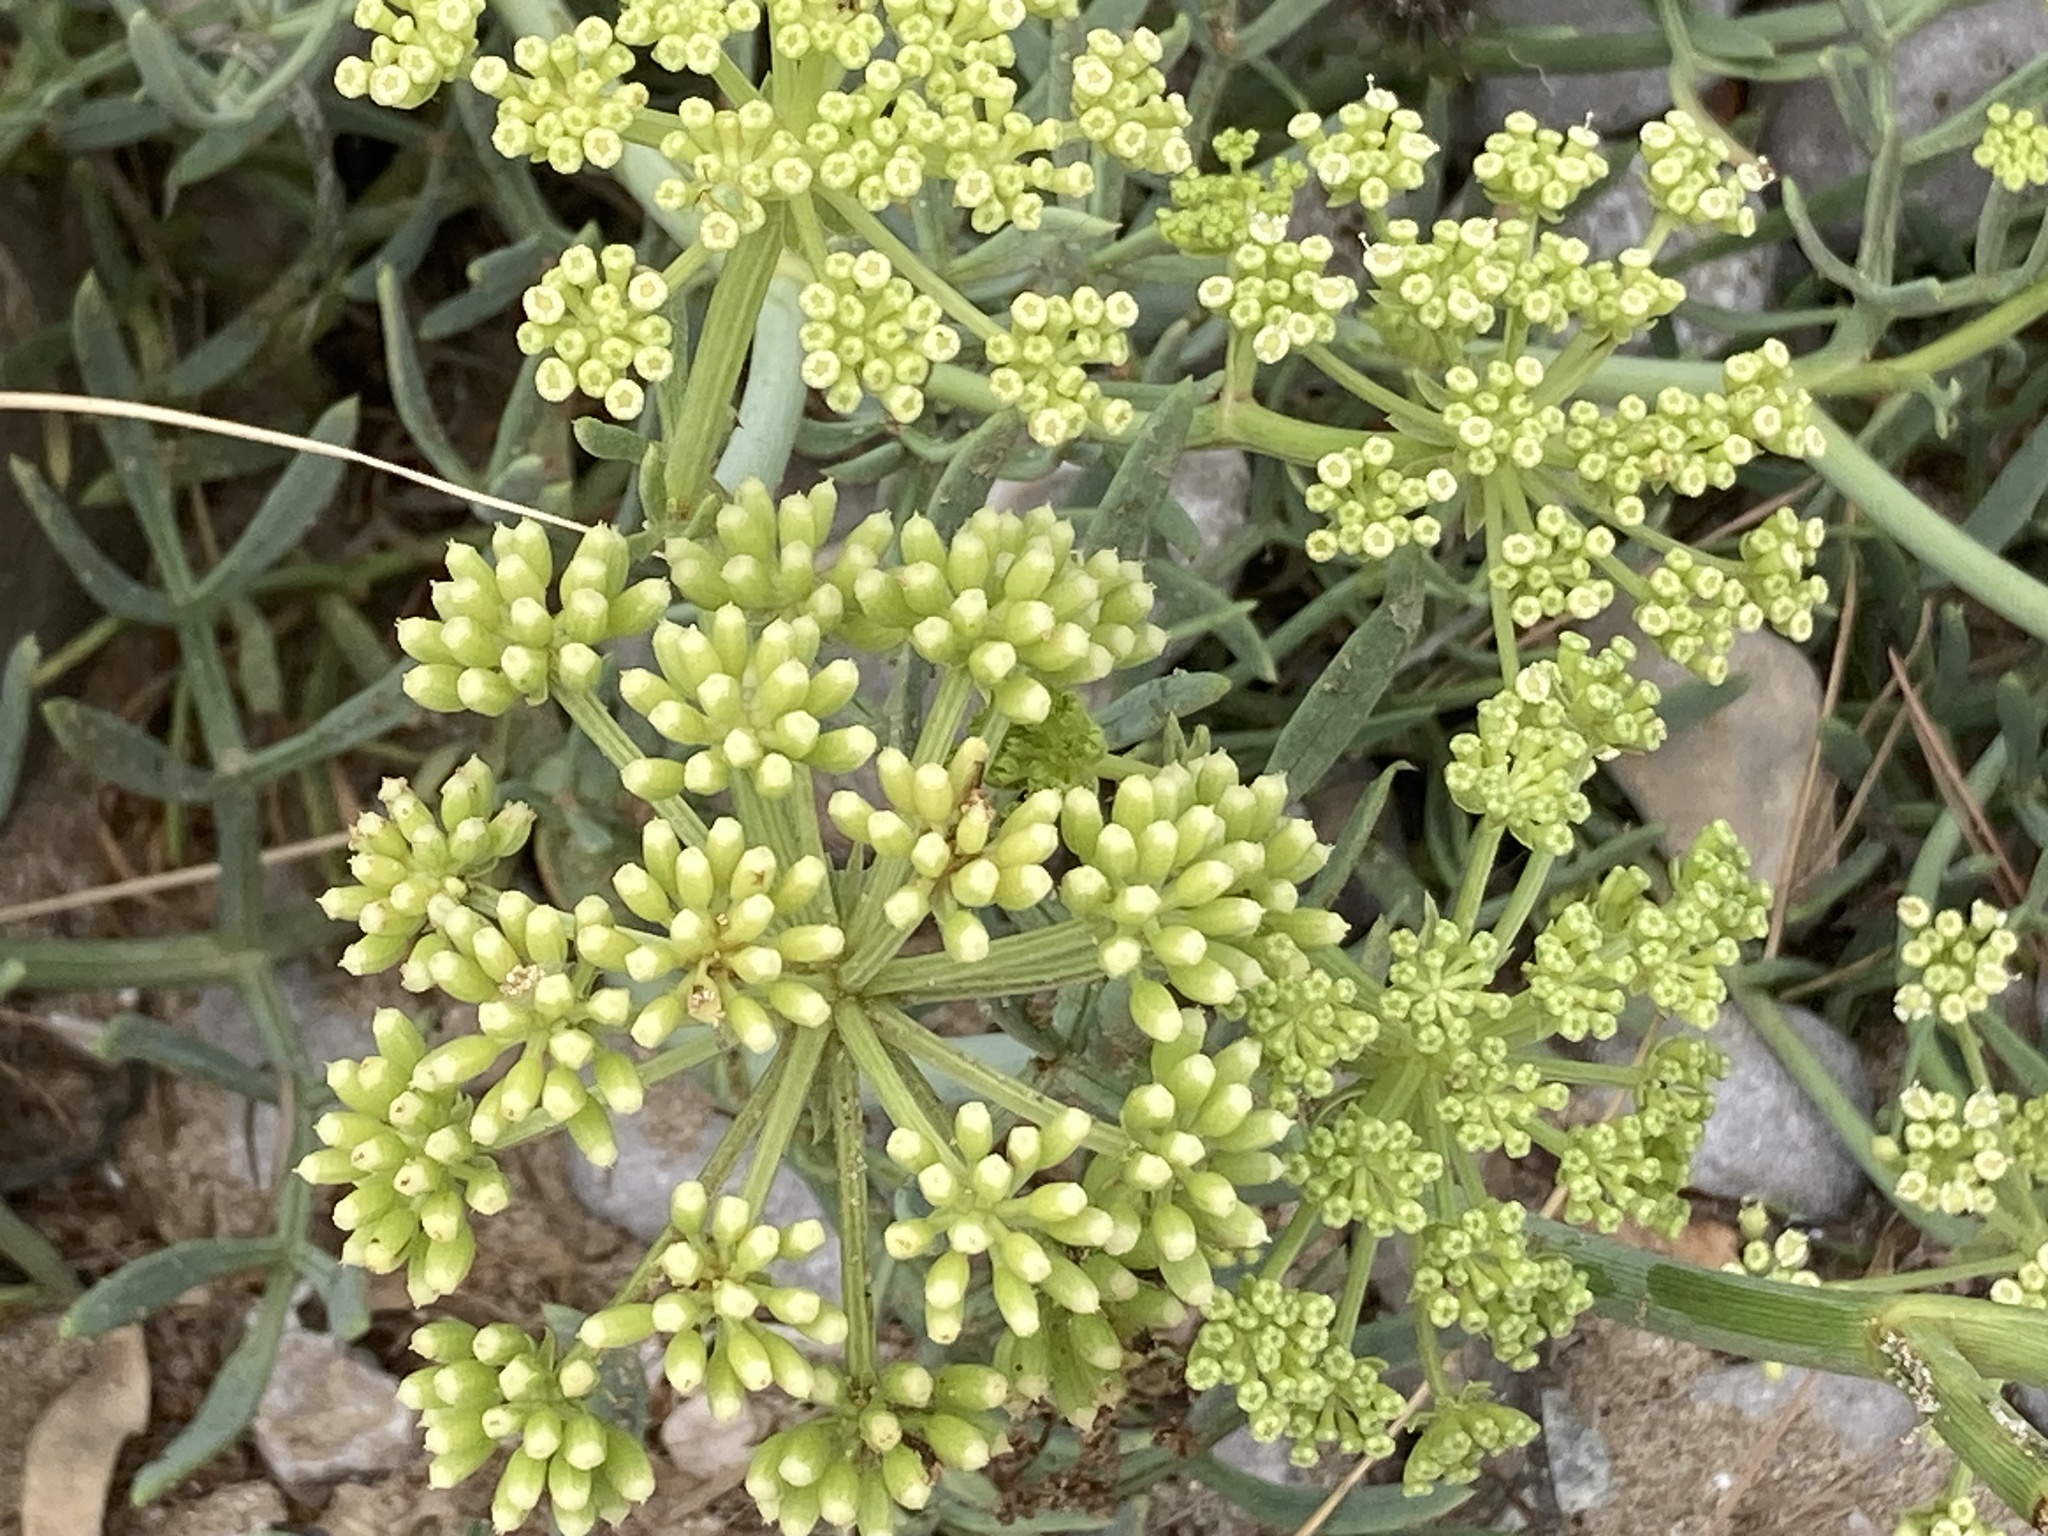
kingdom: Plantae
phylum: Tracheophyta
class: Magnoliopsida
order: Apiales
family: Apiaceae
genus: Crithmum
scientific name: Crithmum maritimum
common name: Rock samphire
